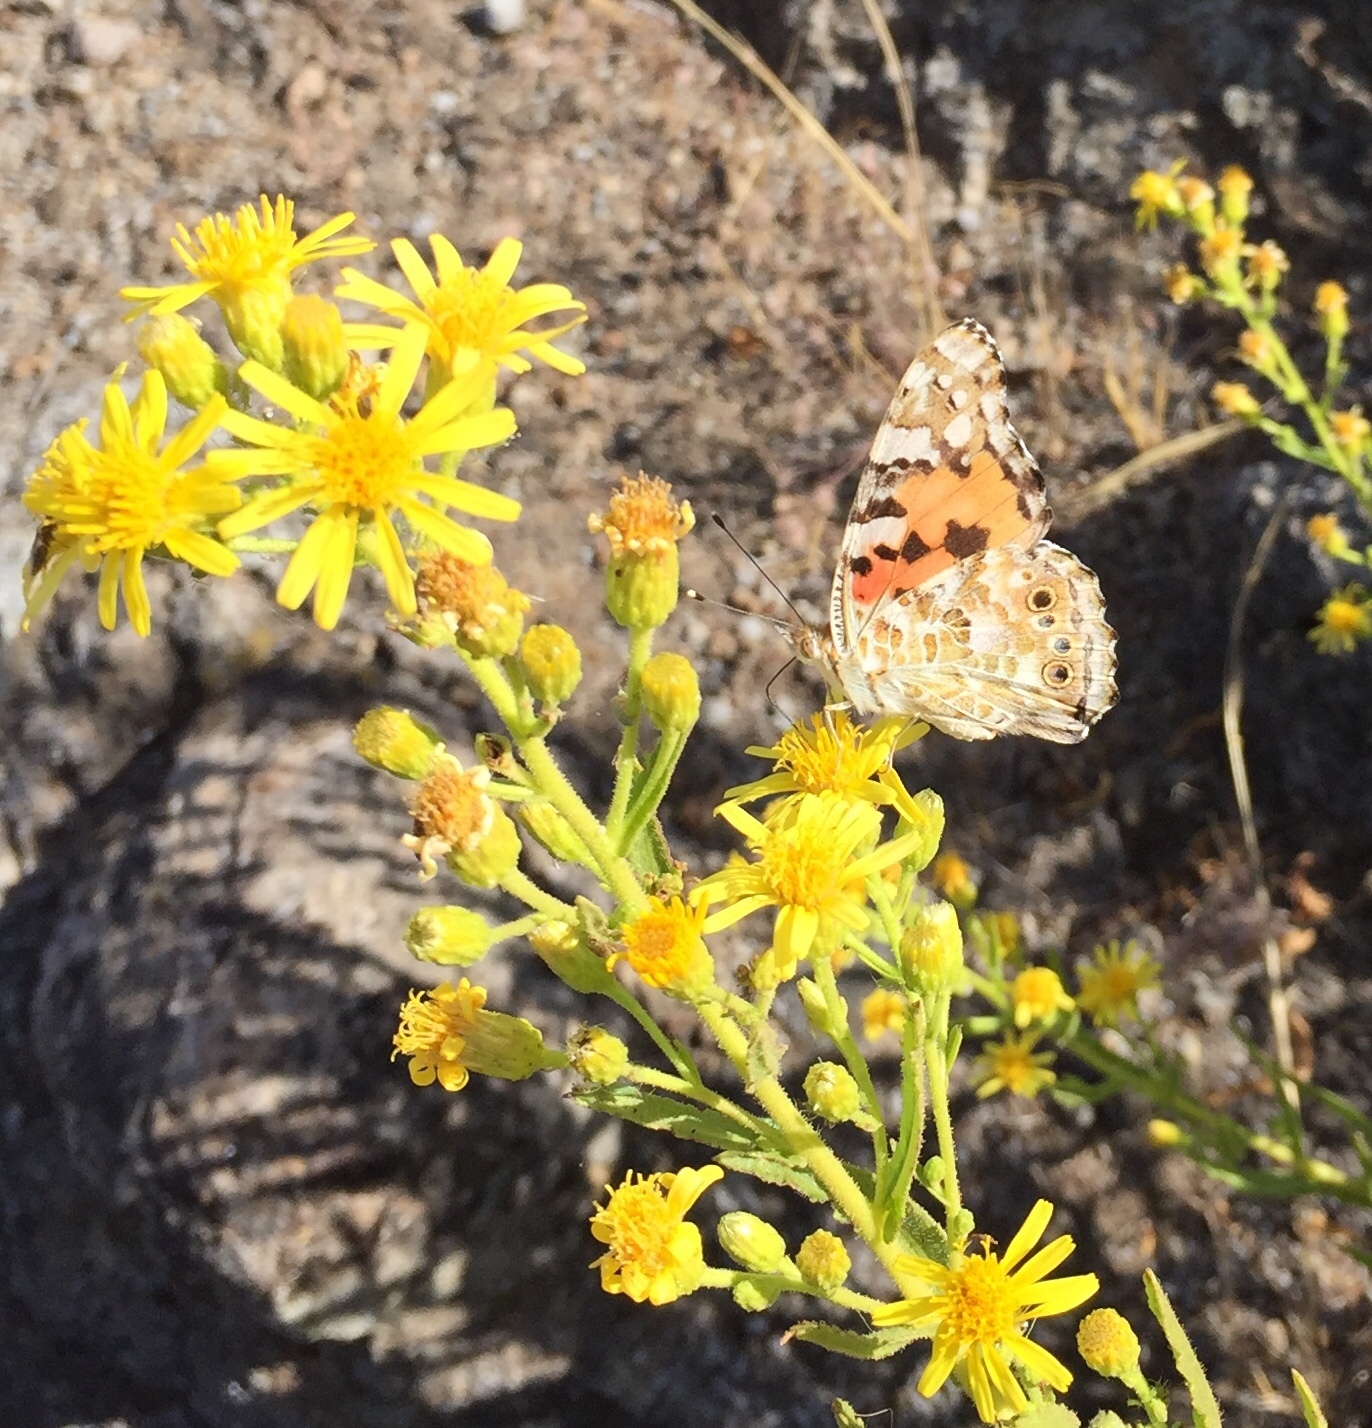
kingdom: Animalia
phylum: Arthropoda
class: Insecta
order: Lepidoptera
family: Nymphalidae
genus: Vanessa
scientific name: Vanessa cardui
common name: Painted lady
